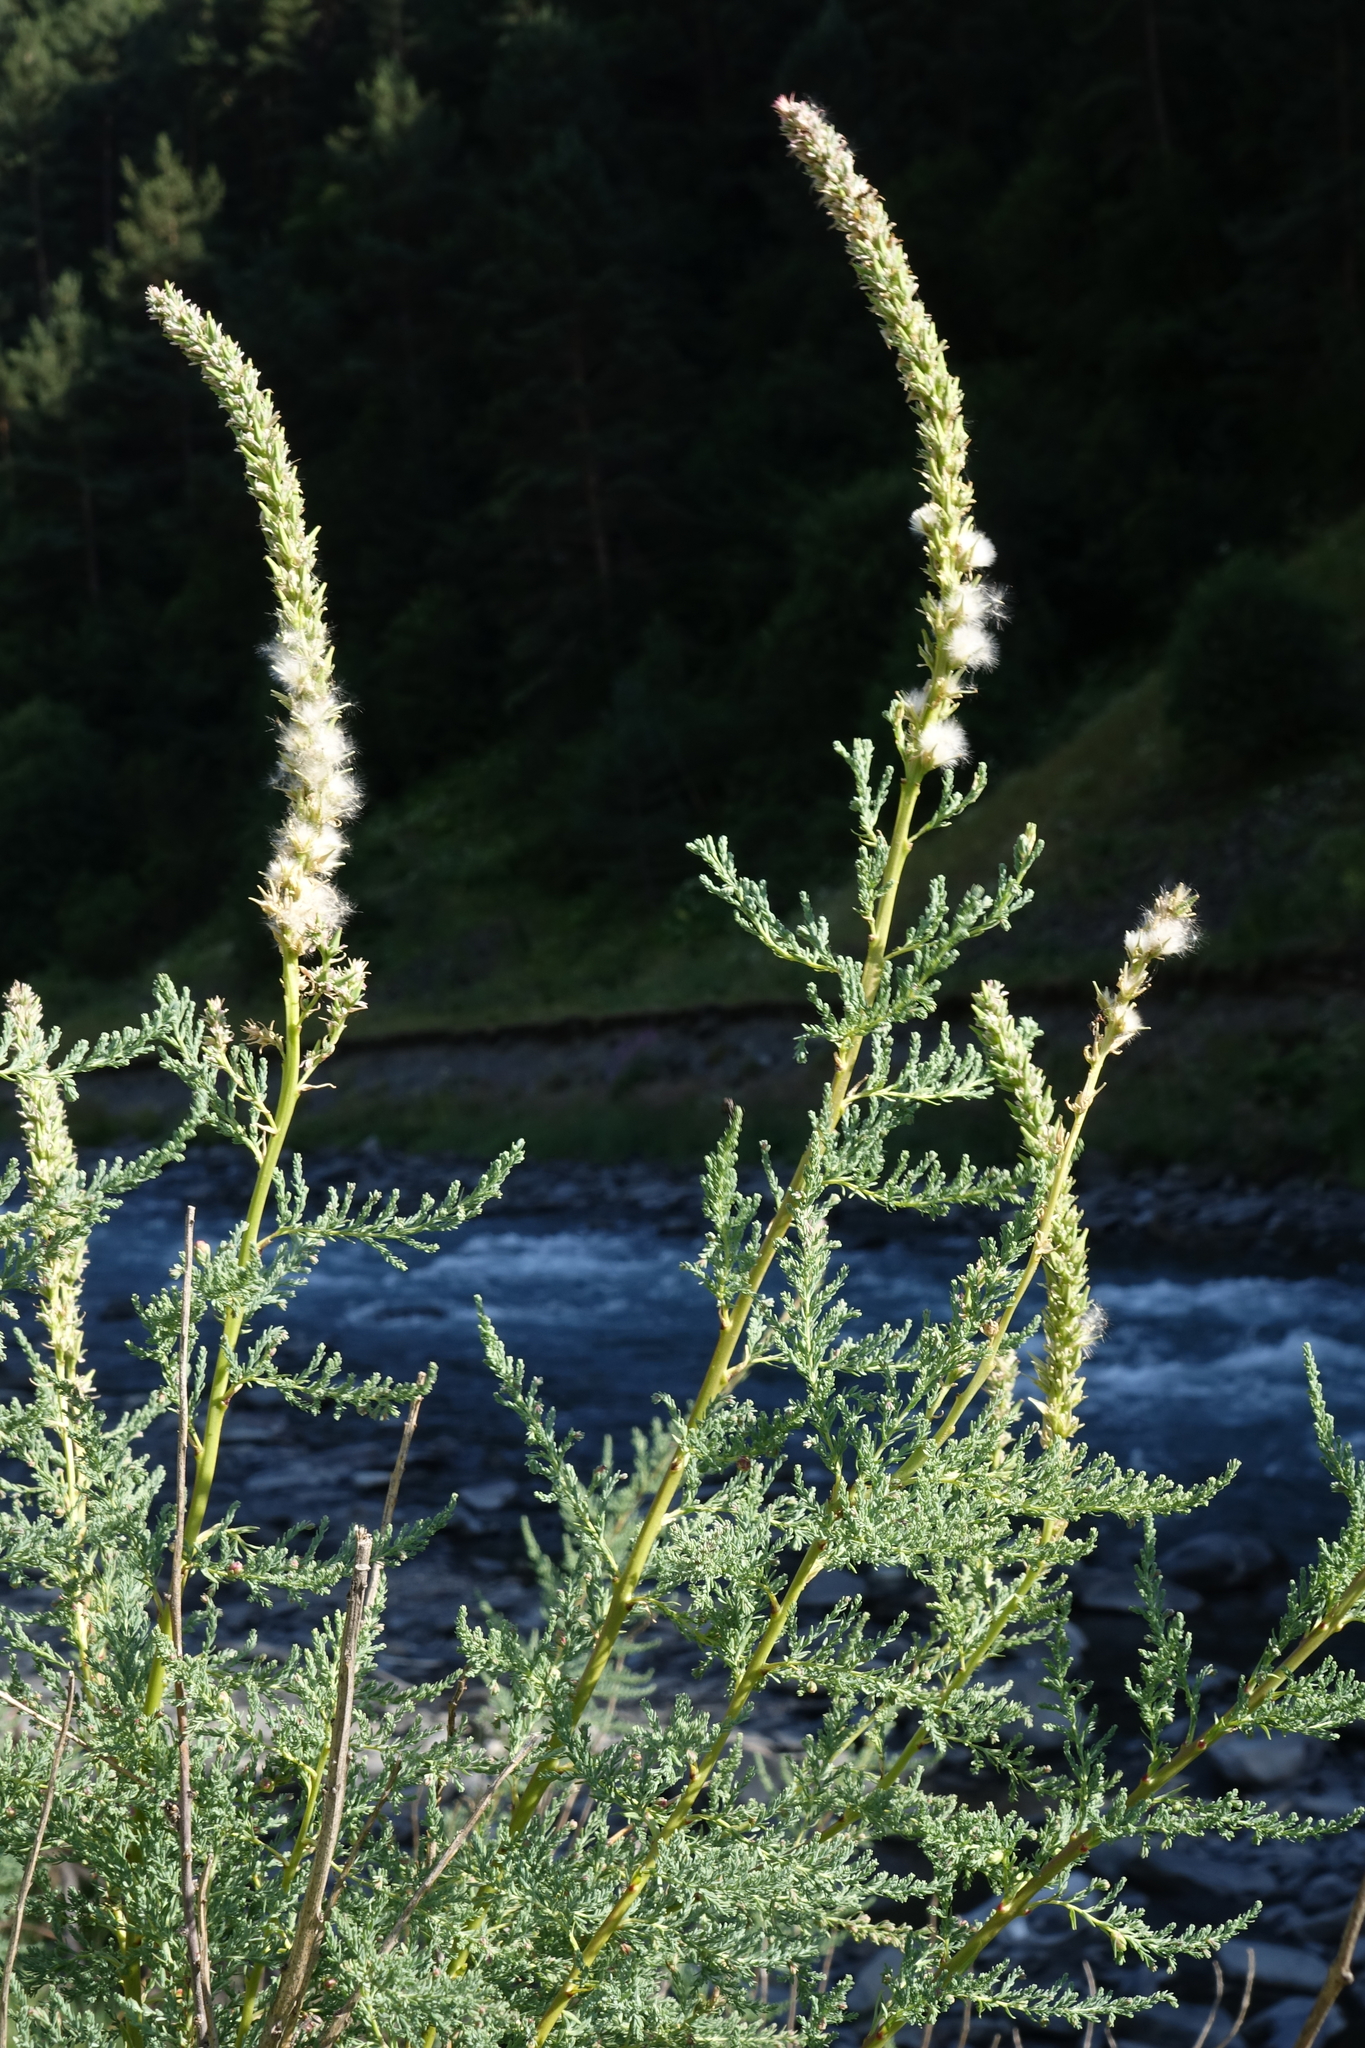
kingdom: Plantae
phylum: Tracheophyta
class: Magnoliopsida
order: Caryophyllales
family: Tamaricaceae
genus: Myricaria
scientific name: Myricaria bracteata
